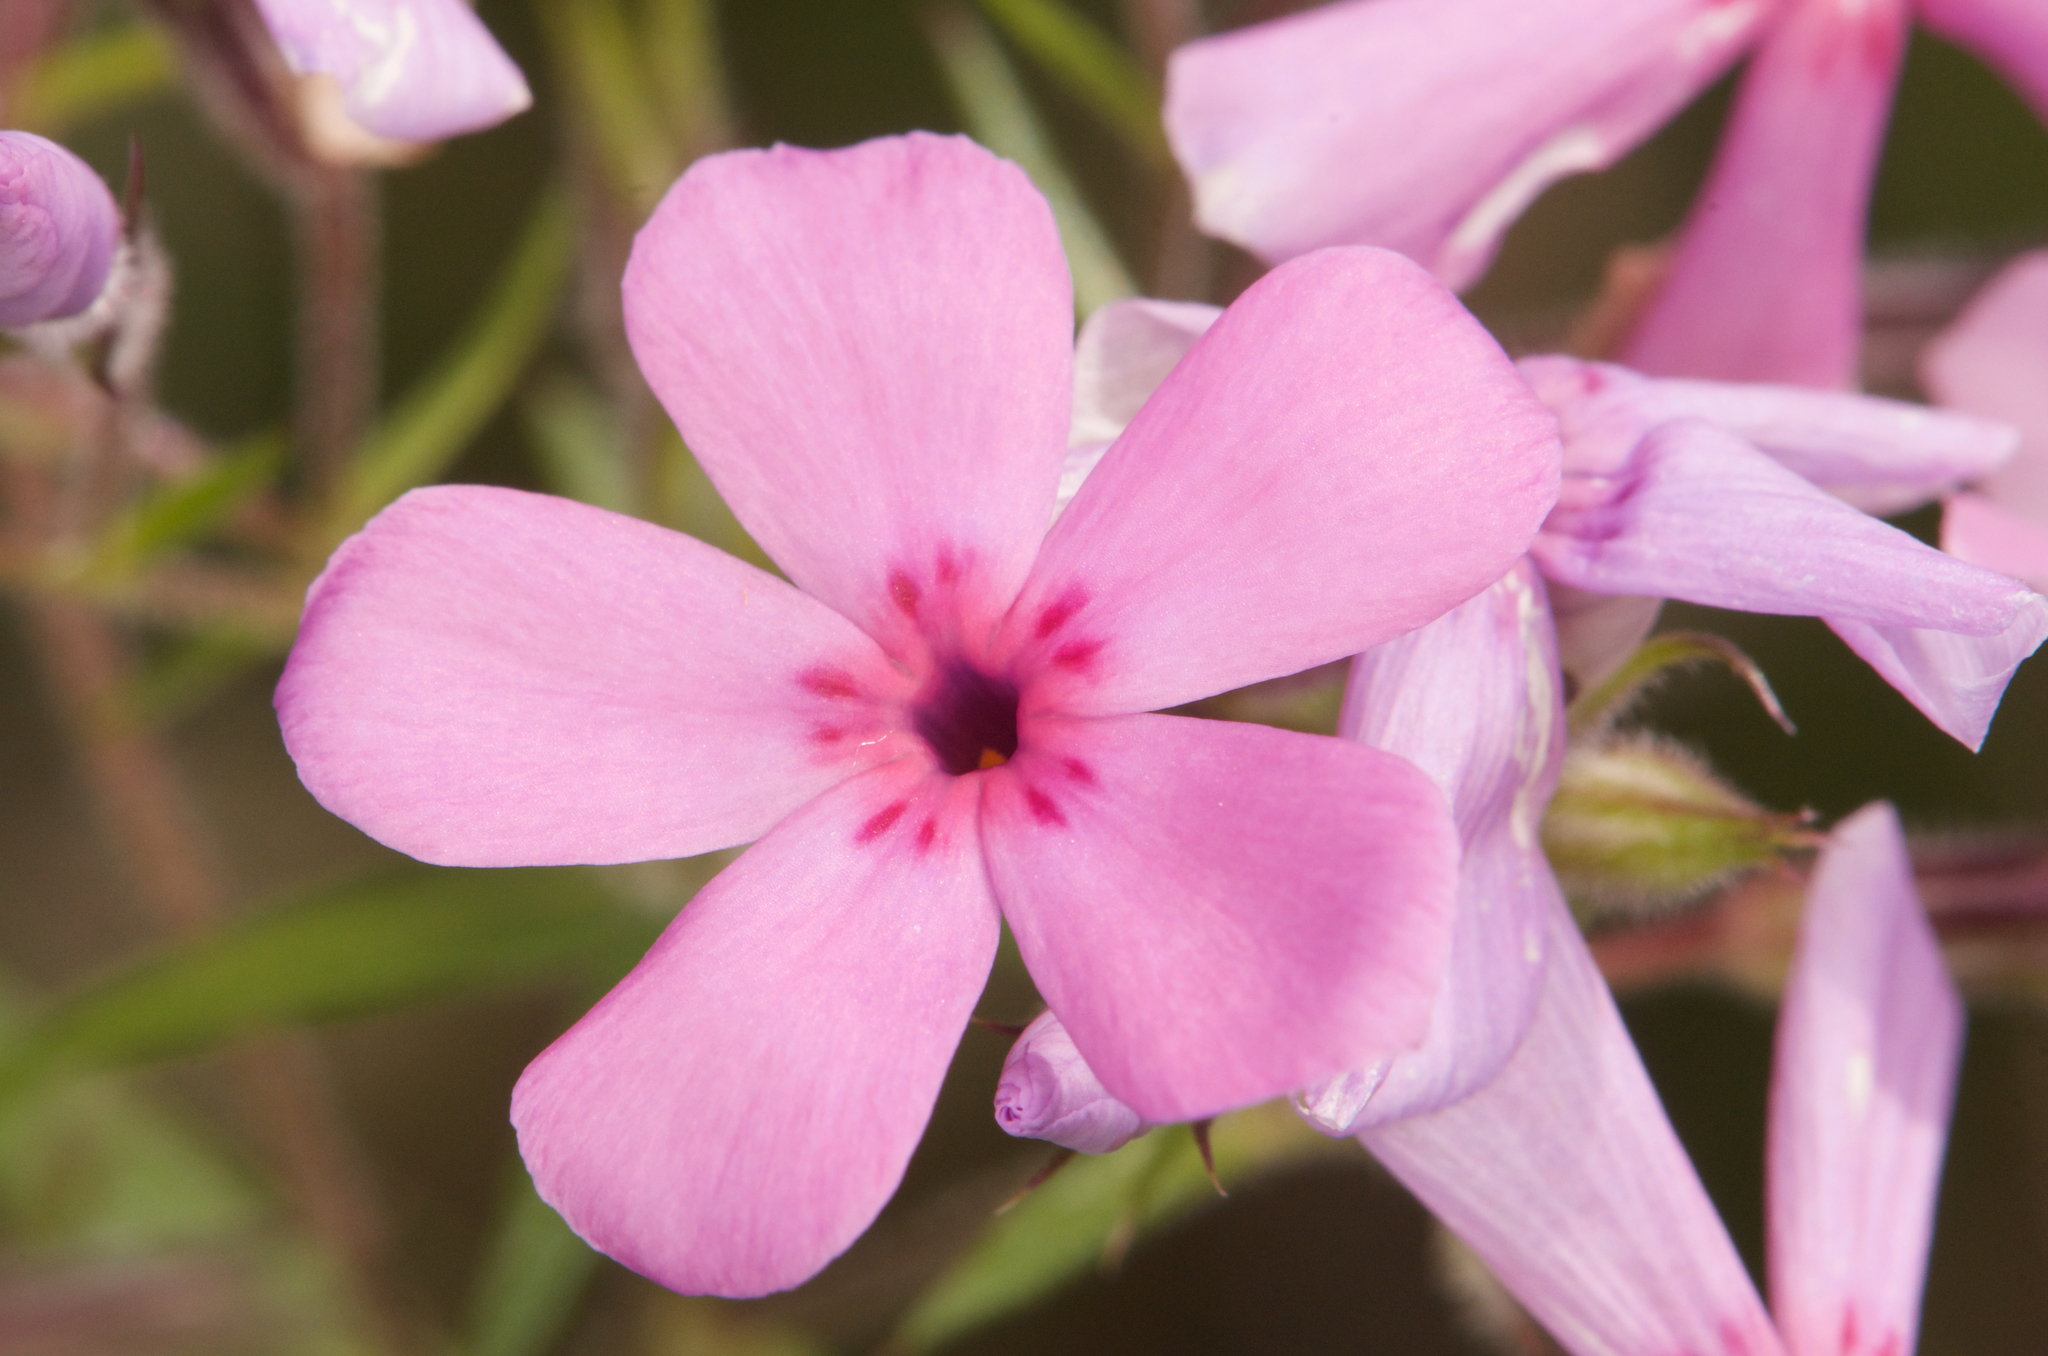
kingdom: Plantae
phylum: Tracheophyta
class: Magnoliopsida
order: Ericales
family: Polemoniaceae
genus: Phlox
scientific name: Phlox pilosa
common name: Prairie phlox
